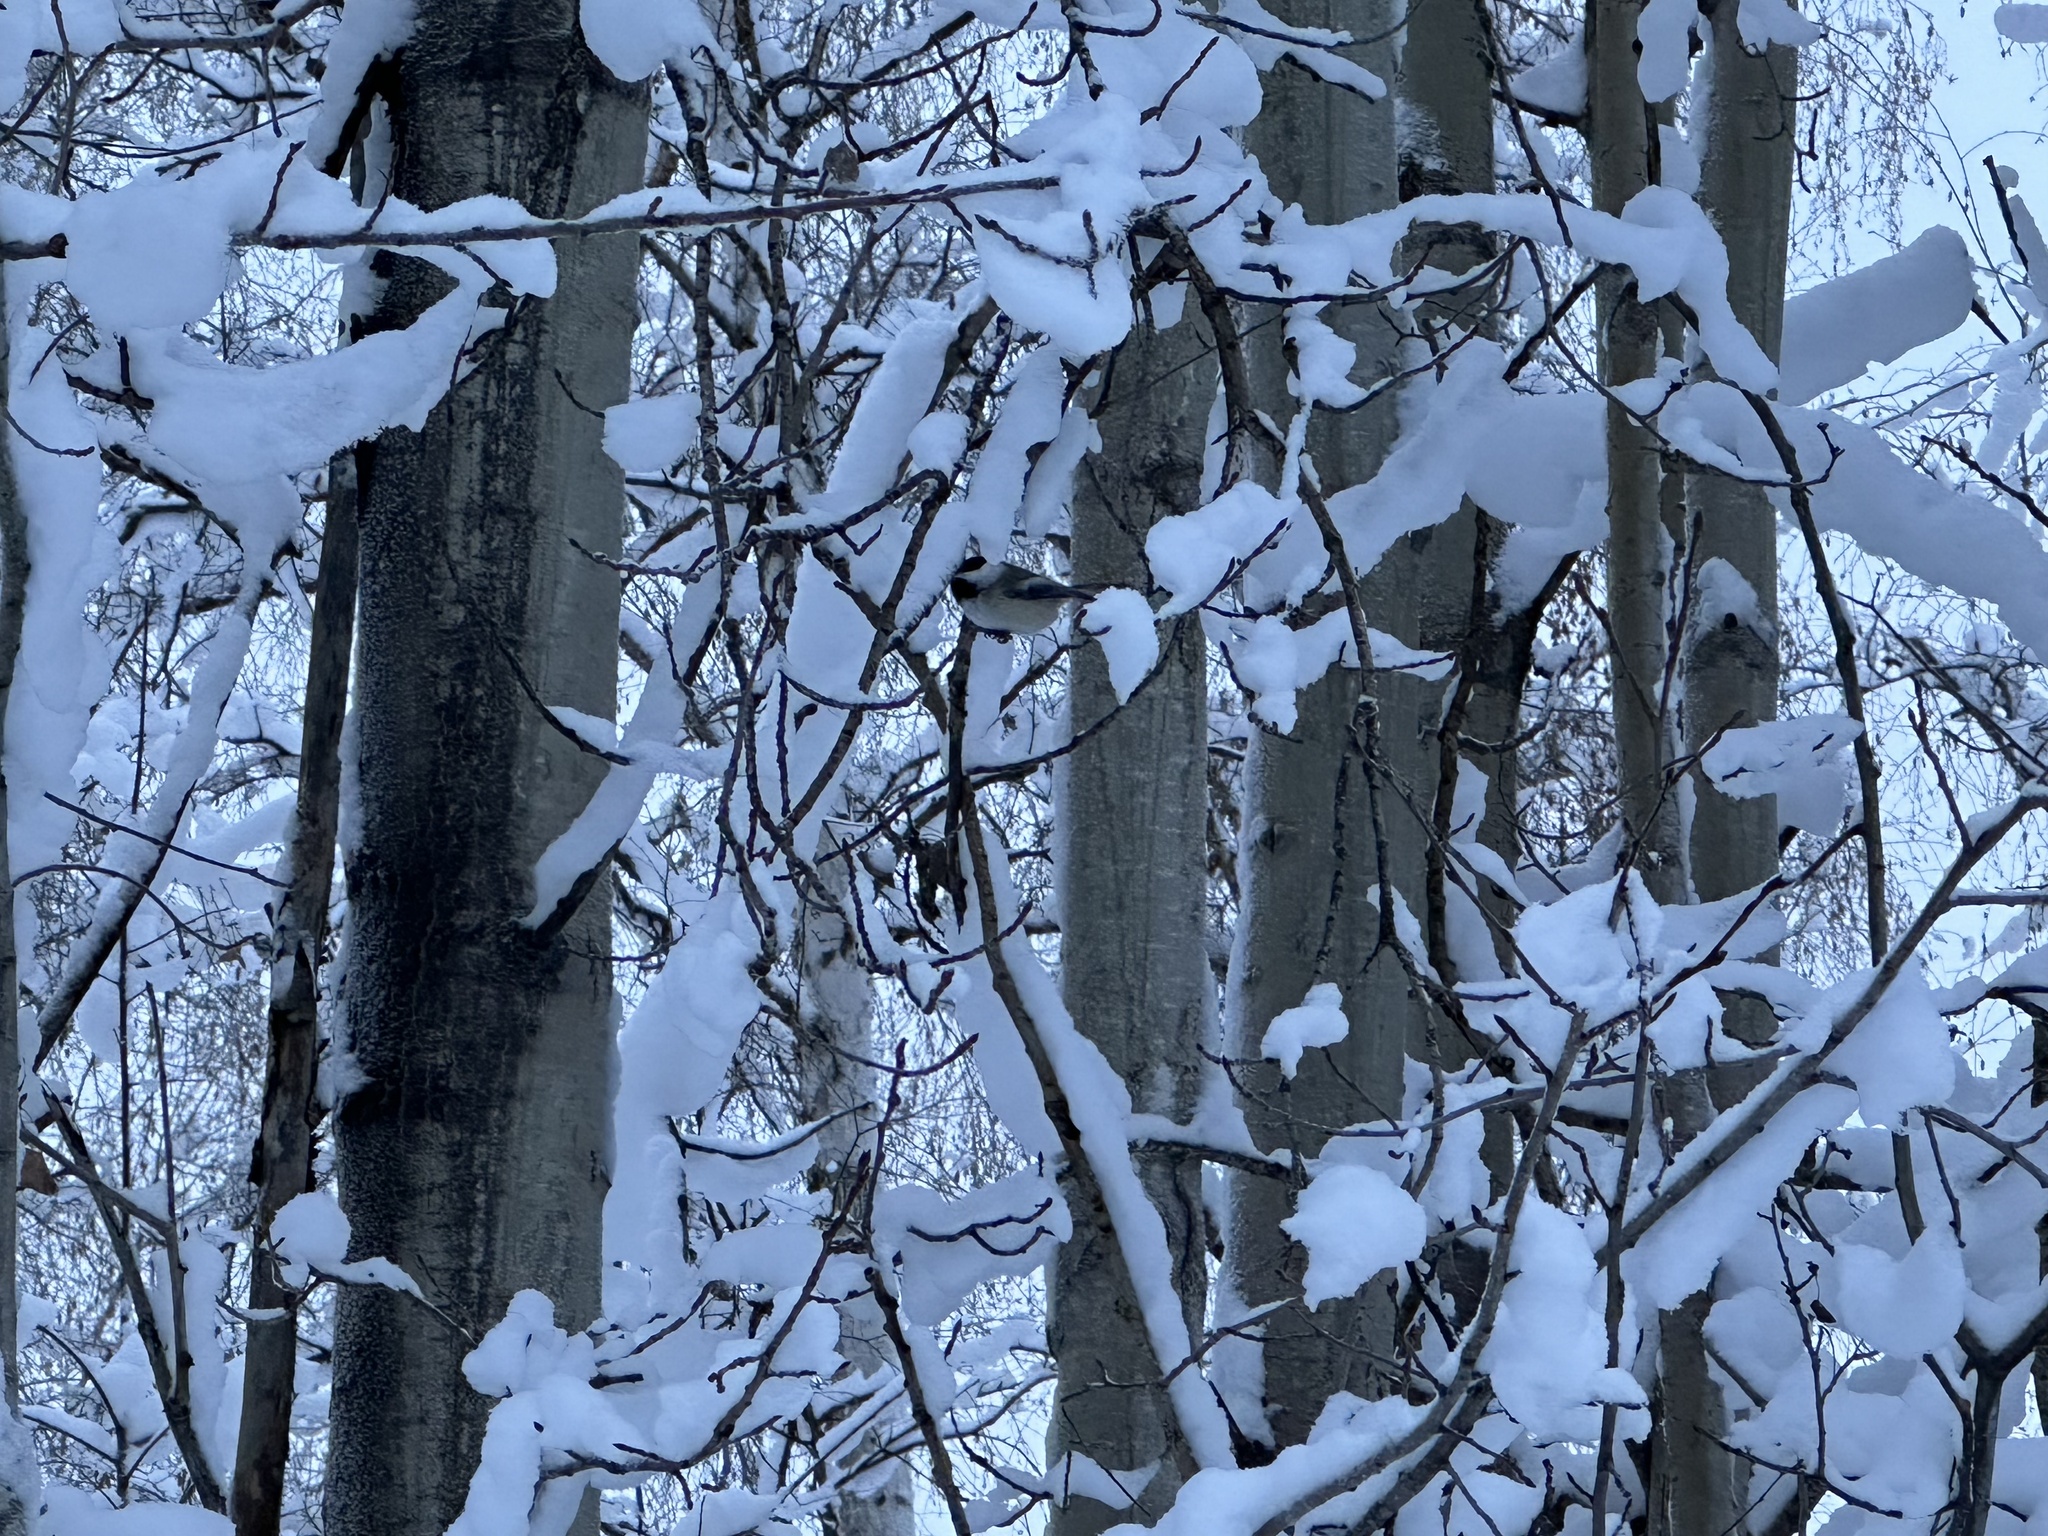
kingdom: Animalia
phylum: Chordata
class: Aves
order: Passeriformes
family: Paridae
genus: Poecile
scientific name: Poecile atricapillus
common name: Black-capped chickadee
